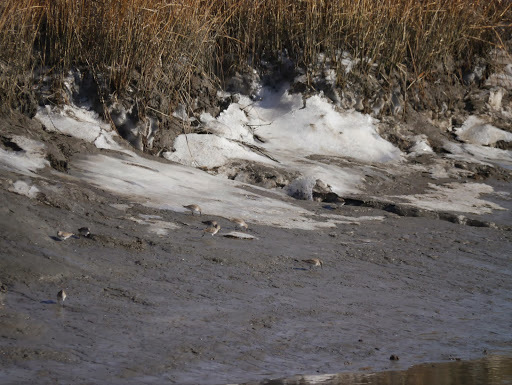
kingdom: Animalia
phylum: Chordata
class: Aves
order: Charadriiformes
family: Scolopacidae
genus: Calidris
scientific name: Calidris alpina
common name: Dunlin
